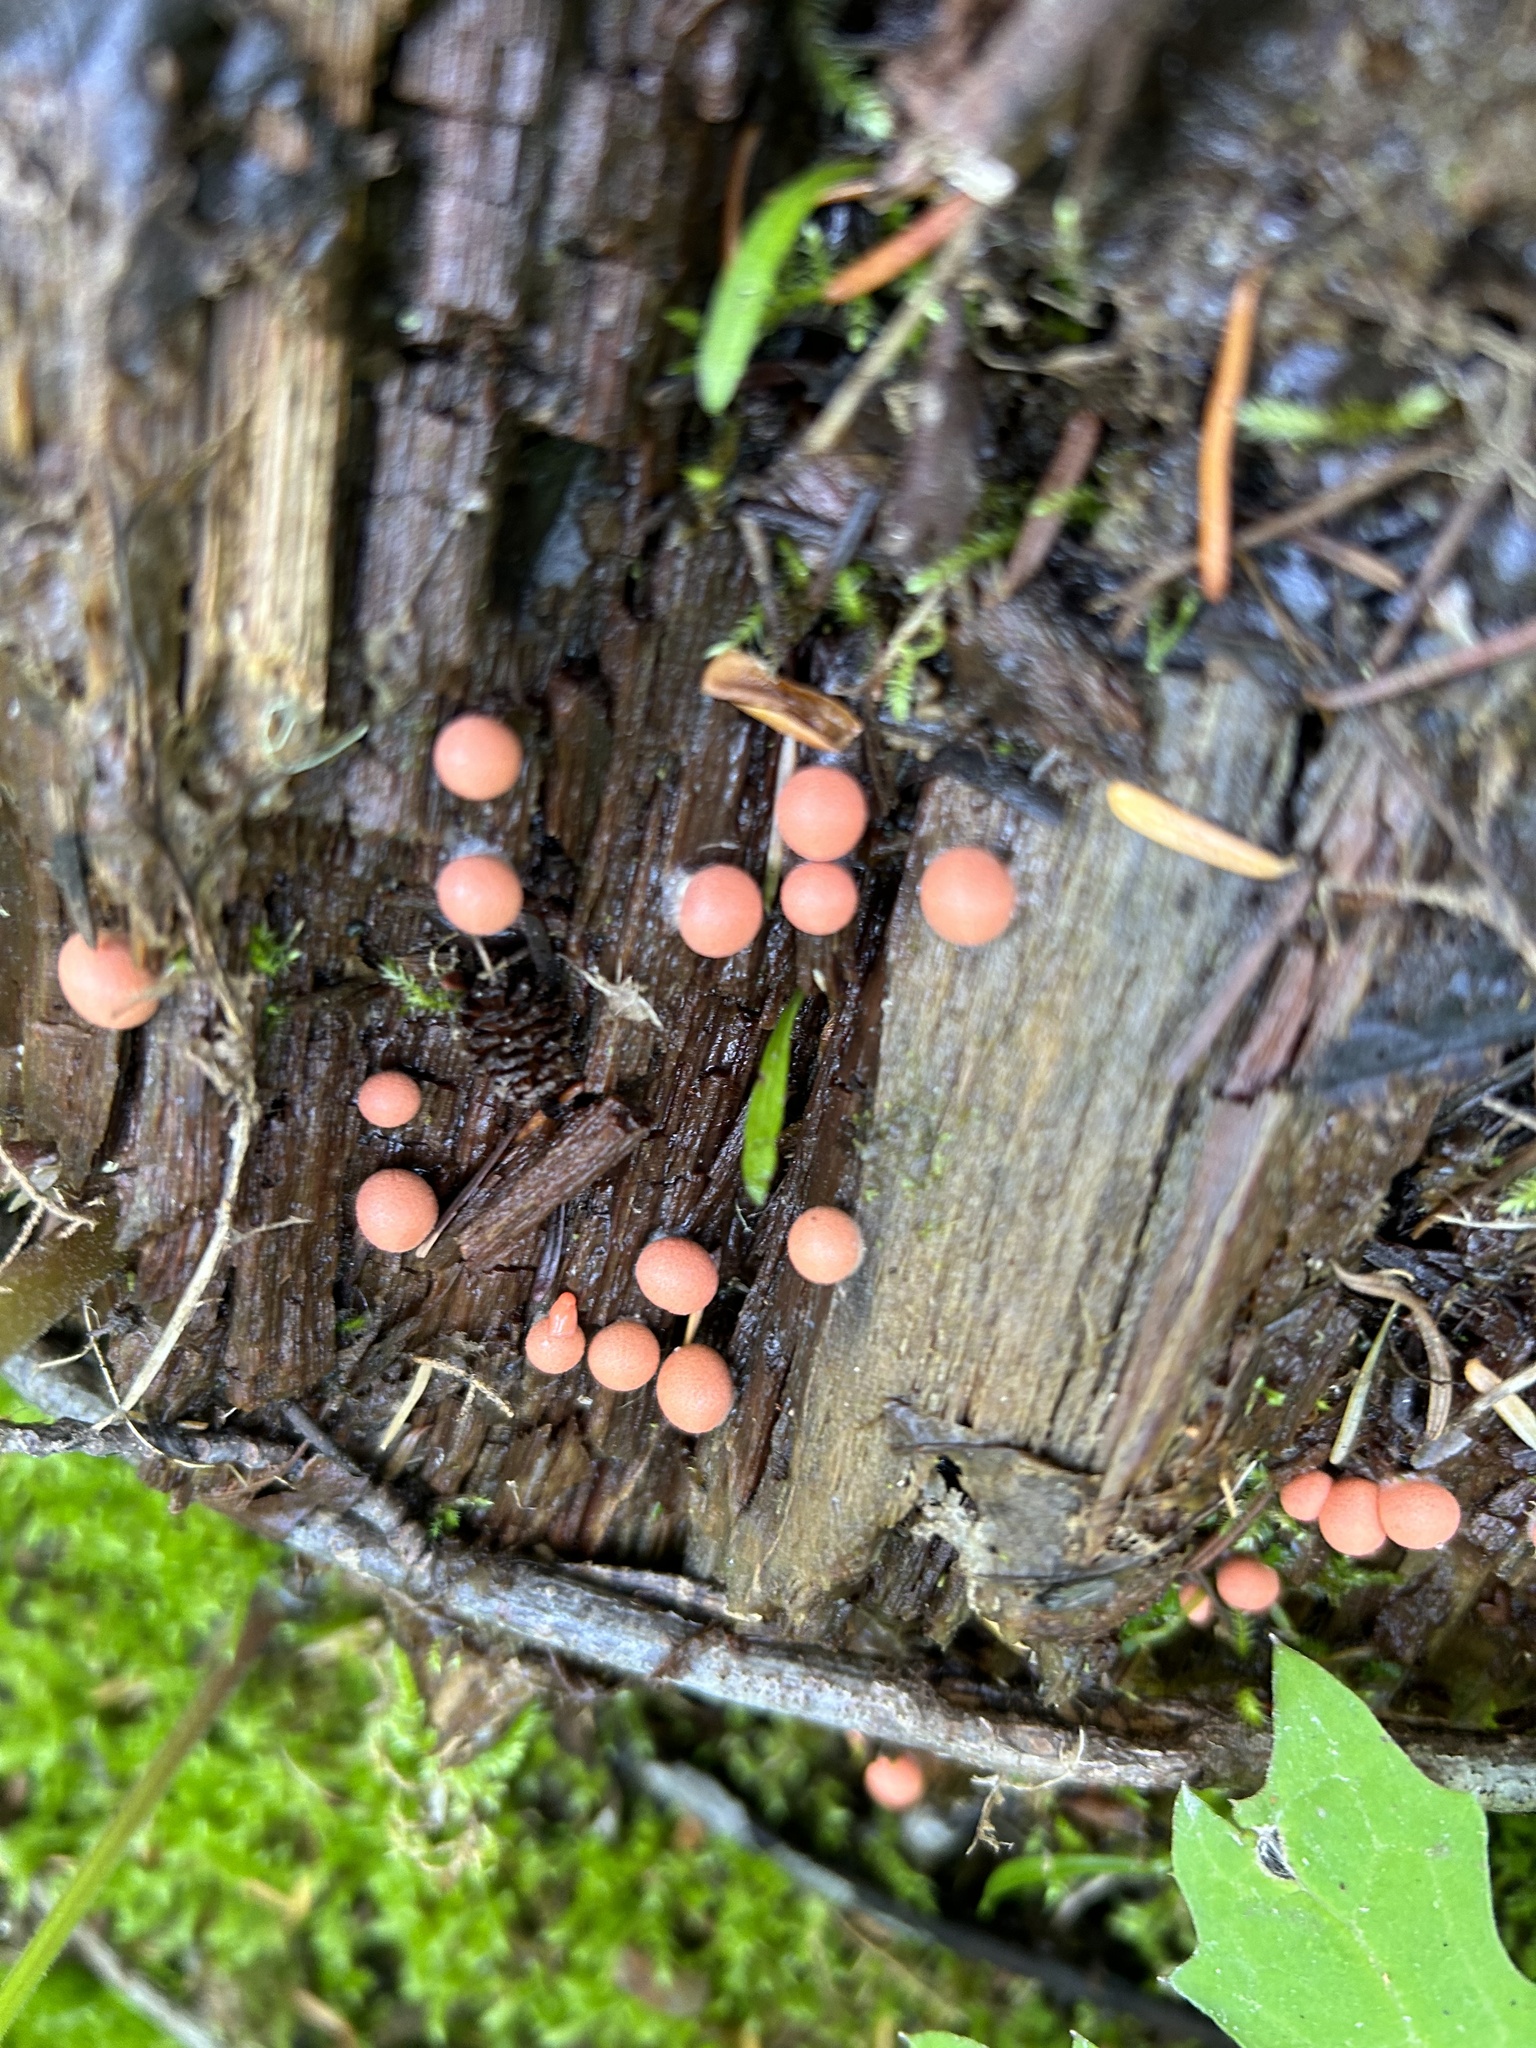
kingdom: Protozoa
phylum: Mycetozoa
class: Myxomycetes
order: Cribrariales
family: Tubiferaceae
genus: Lycogala
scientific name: Lycogala epidendrum
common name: Wolf's milk
